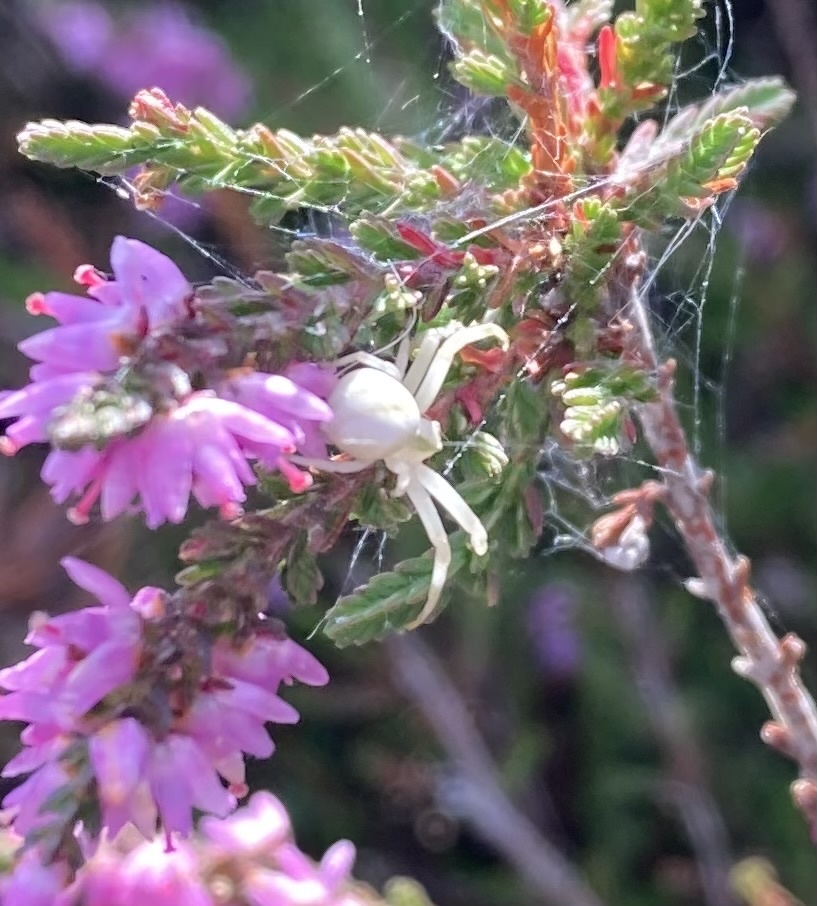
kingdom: Animalia
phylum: Arthropoda
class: Arachnida
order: Araneae
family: Thomisidae
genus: Misumena
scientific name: Misumena vatia
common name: Goldenrod crab spider
